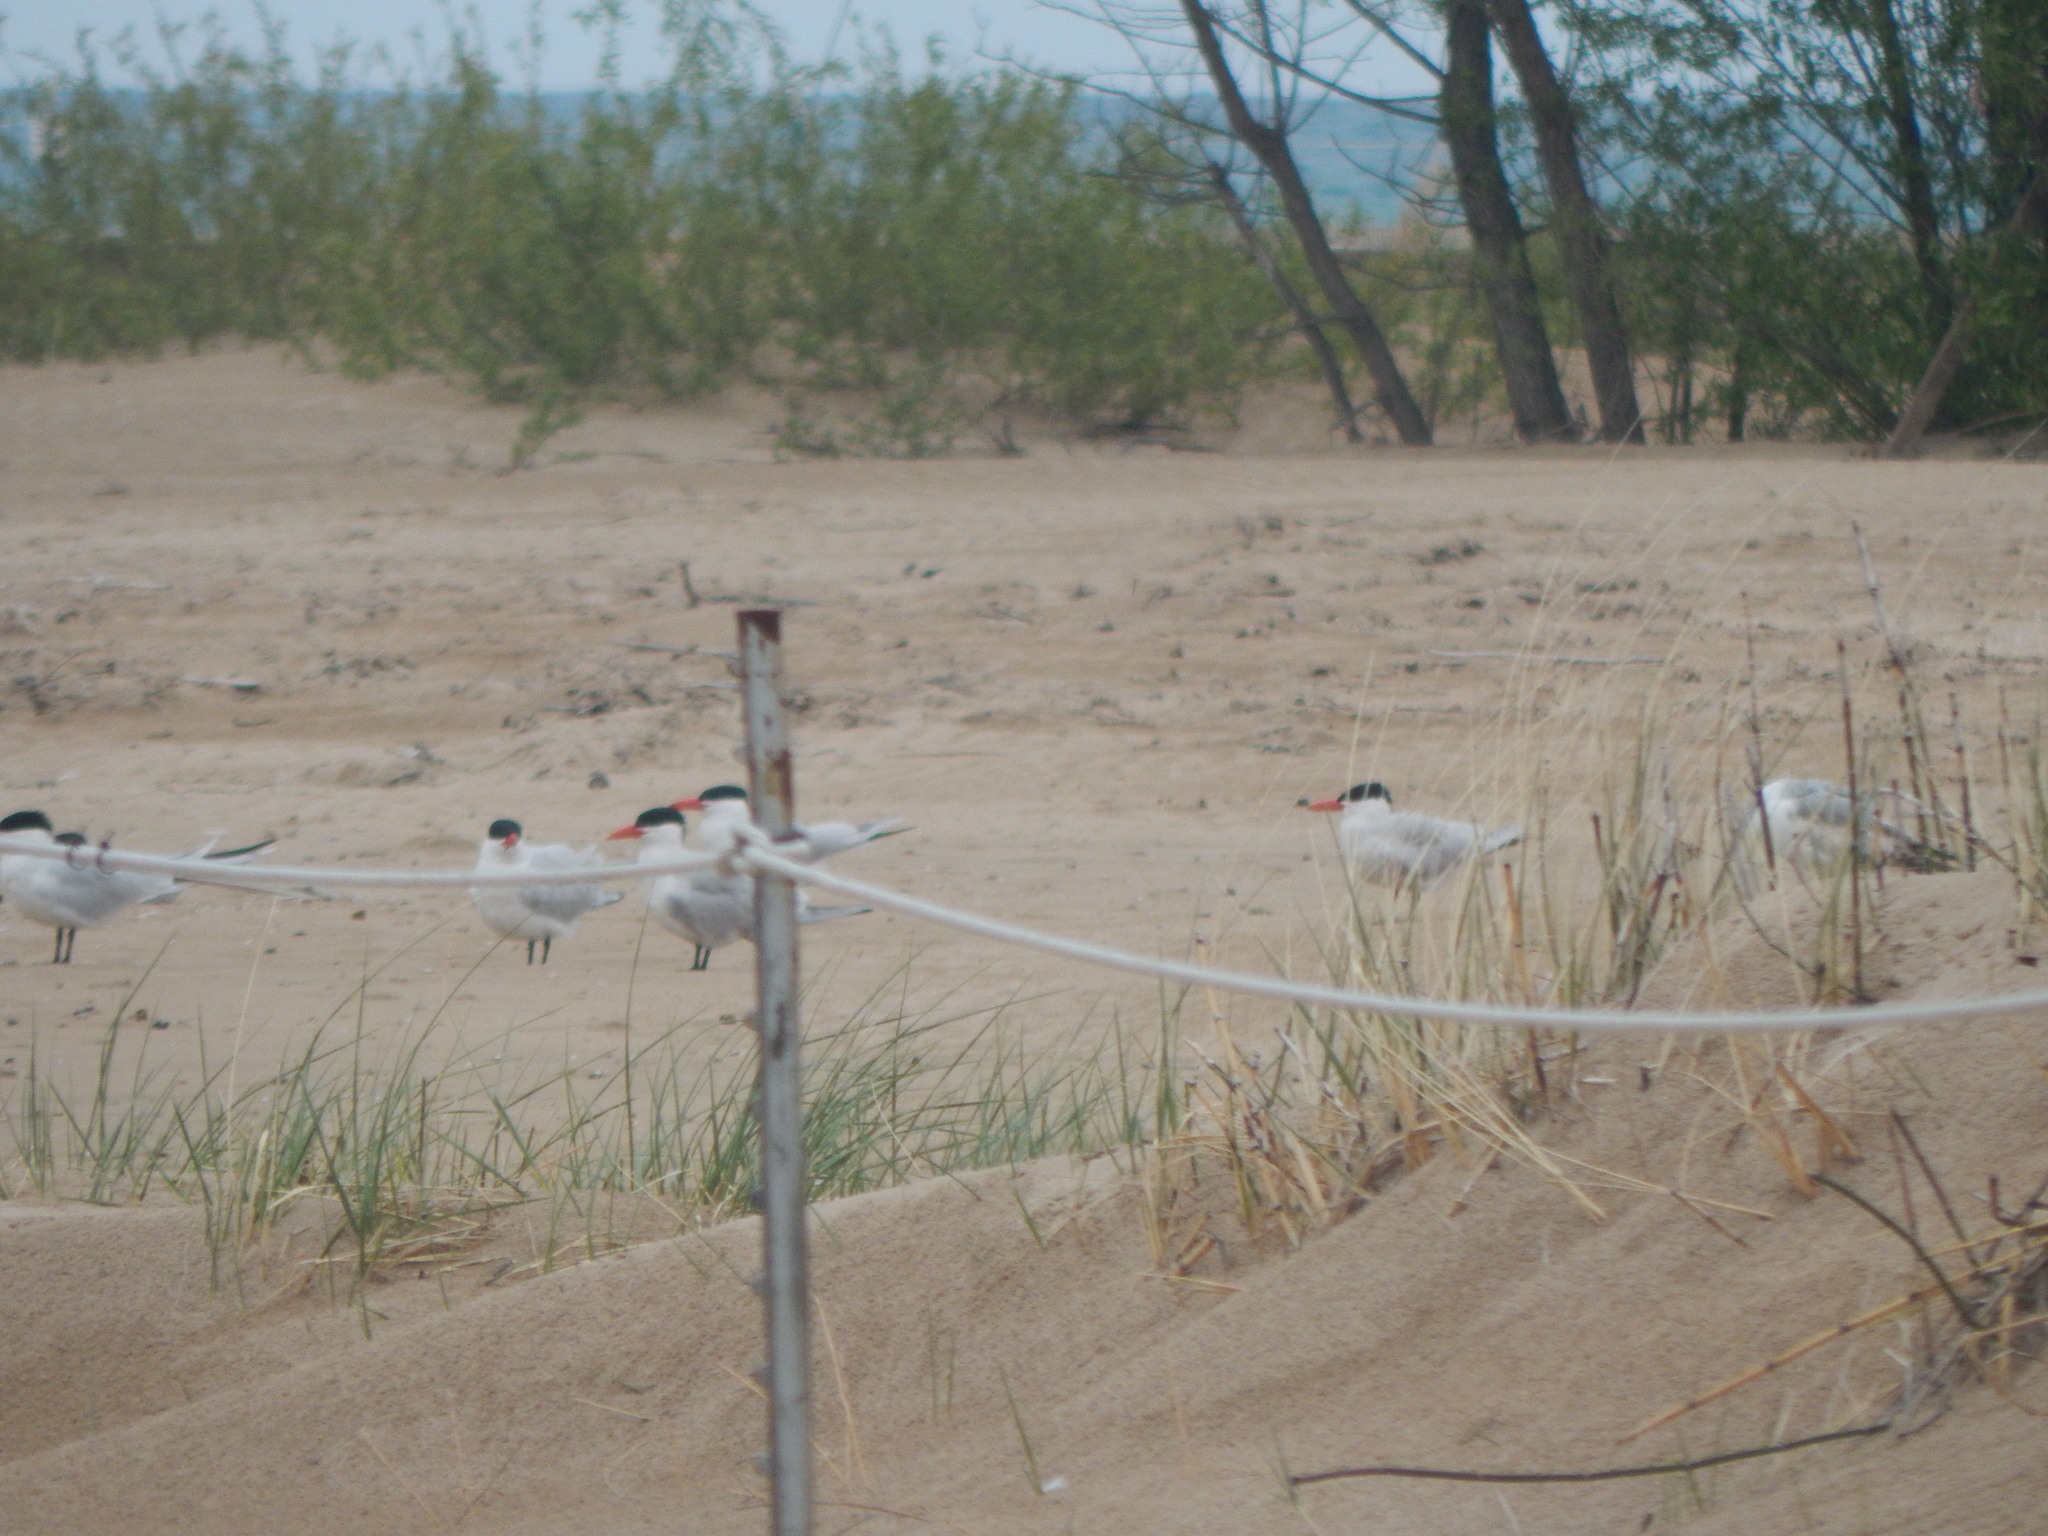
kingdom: Animalia
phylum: Chordata
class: Aves
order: Charadriiformes
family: Laridae
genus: Hydroprogne
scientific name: Hydroprogne caspia
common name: Caspian tern
